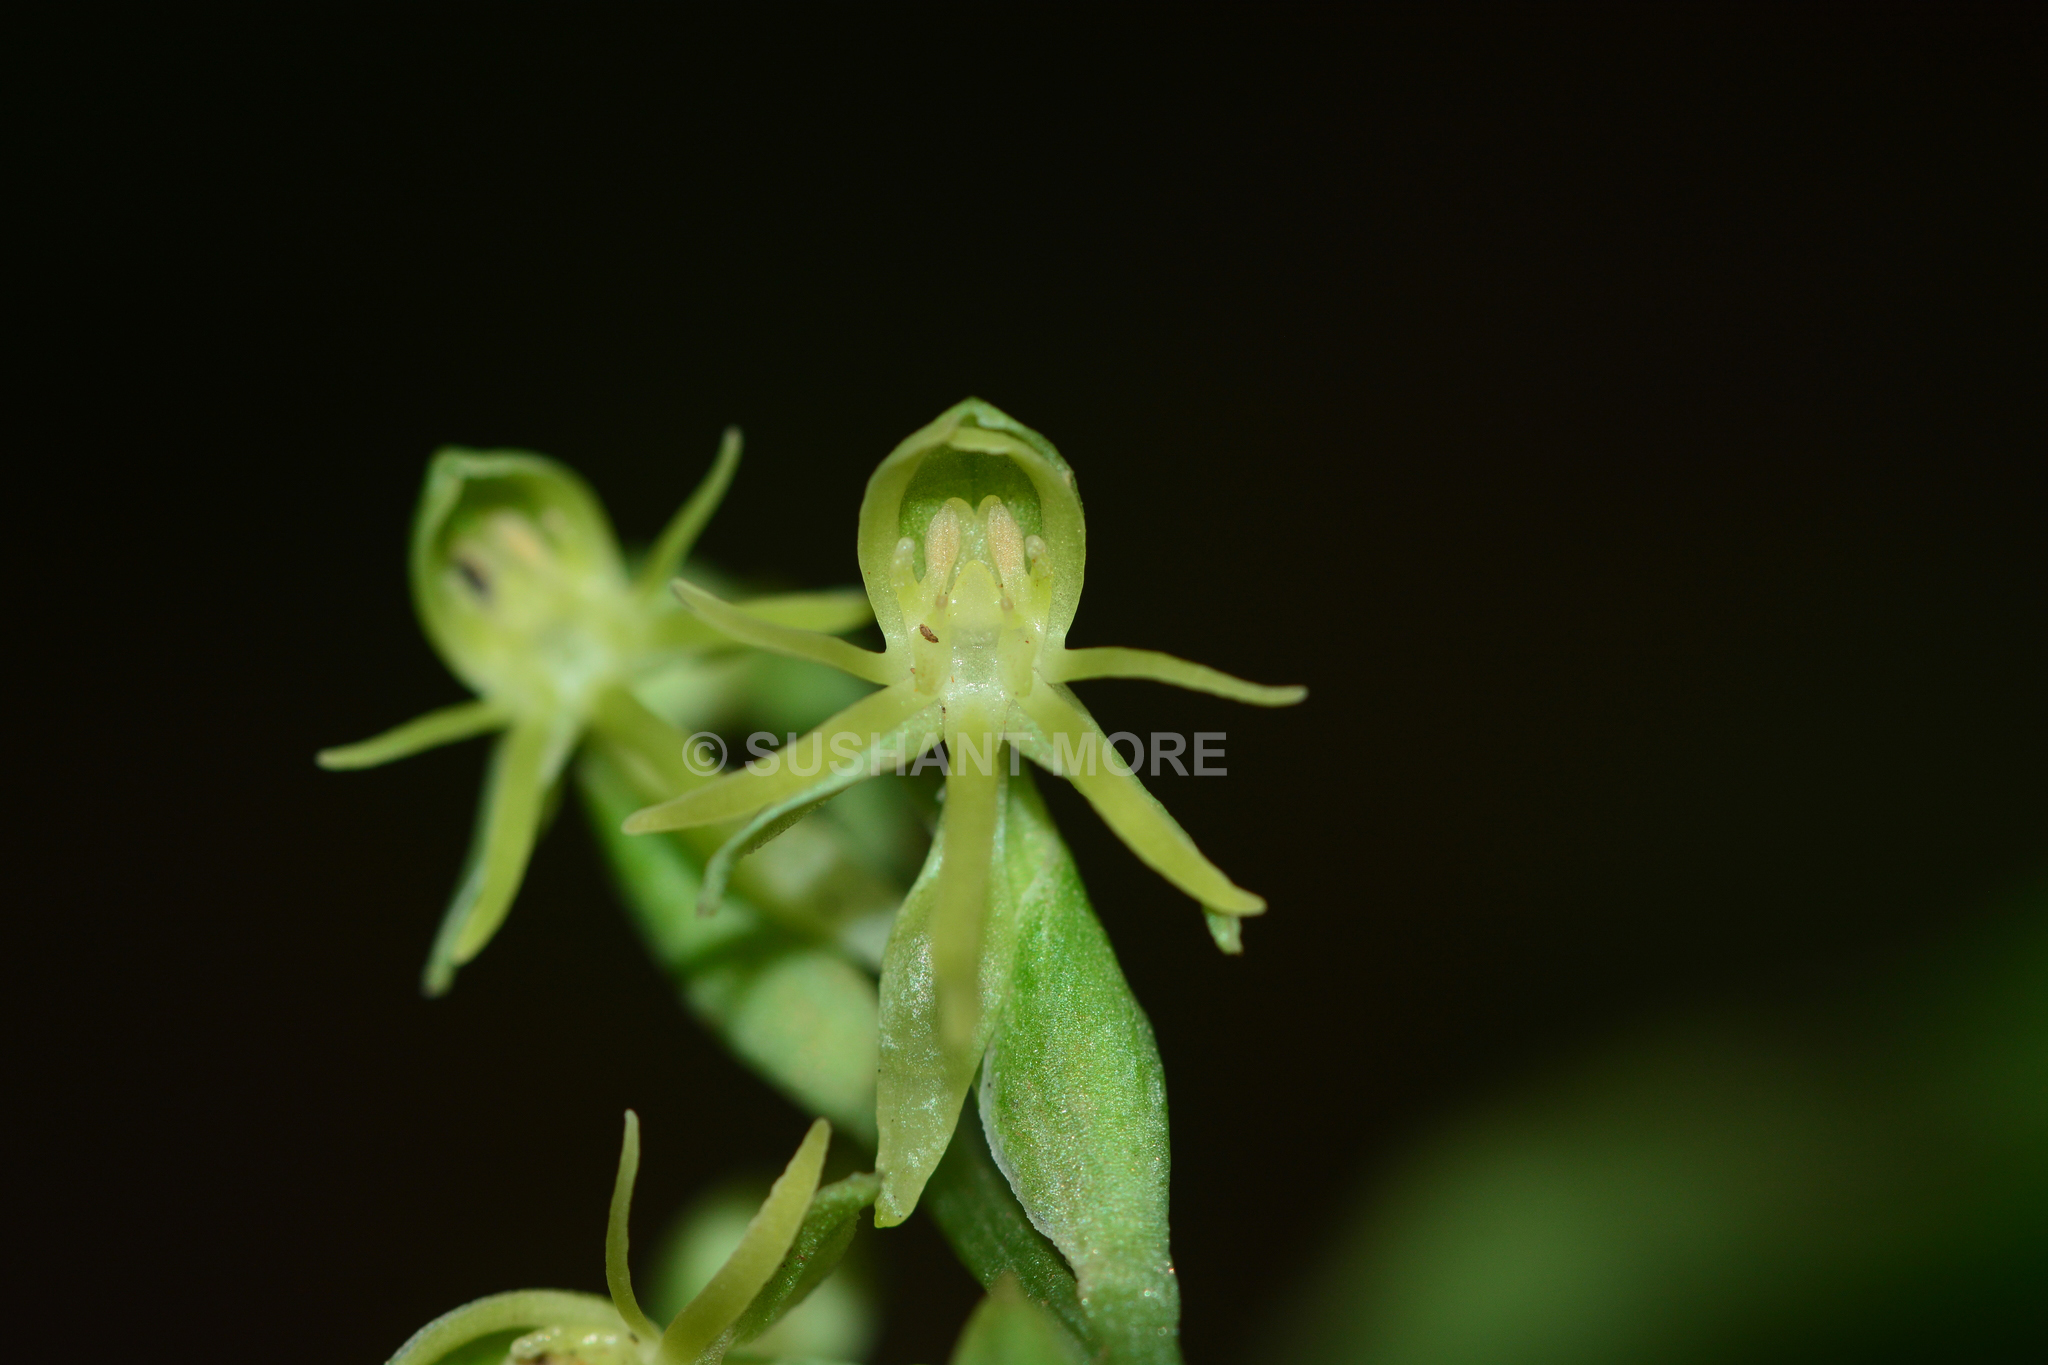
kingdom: Plantae
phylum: Tracheophyta
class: Liliopsida
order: Asparagales
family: Orchidaceae
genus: Habenaria
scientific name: Habenaria spencei
